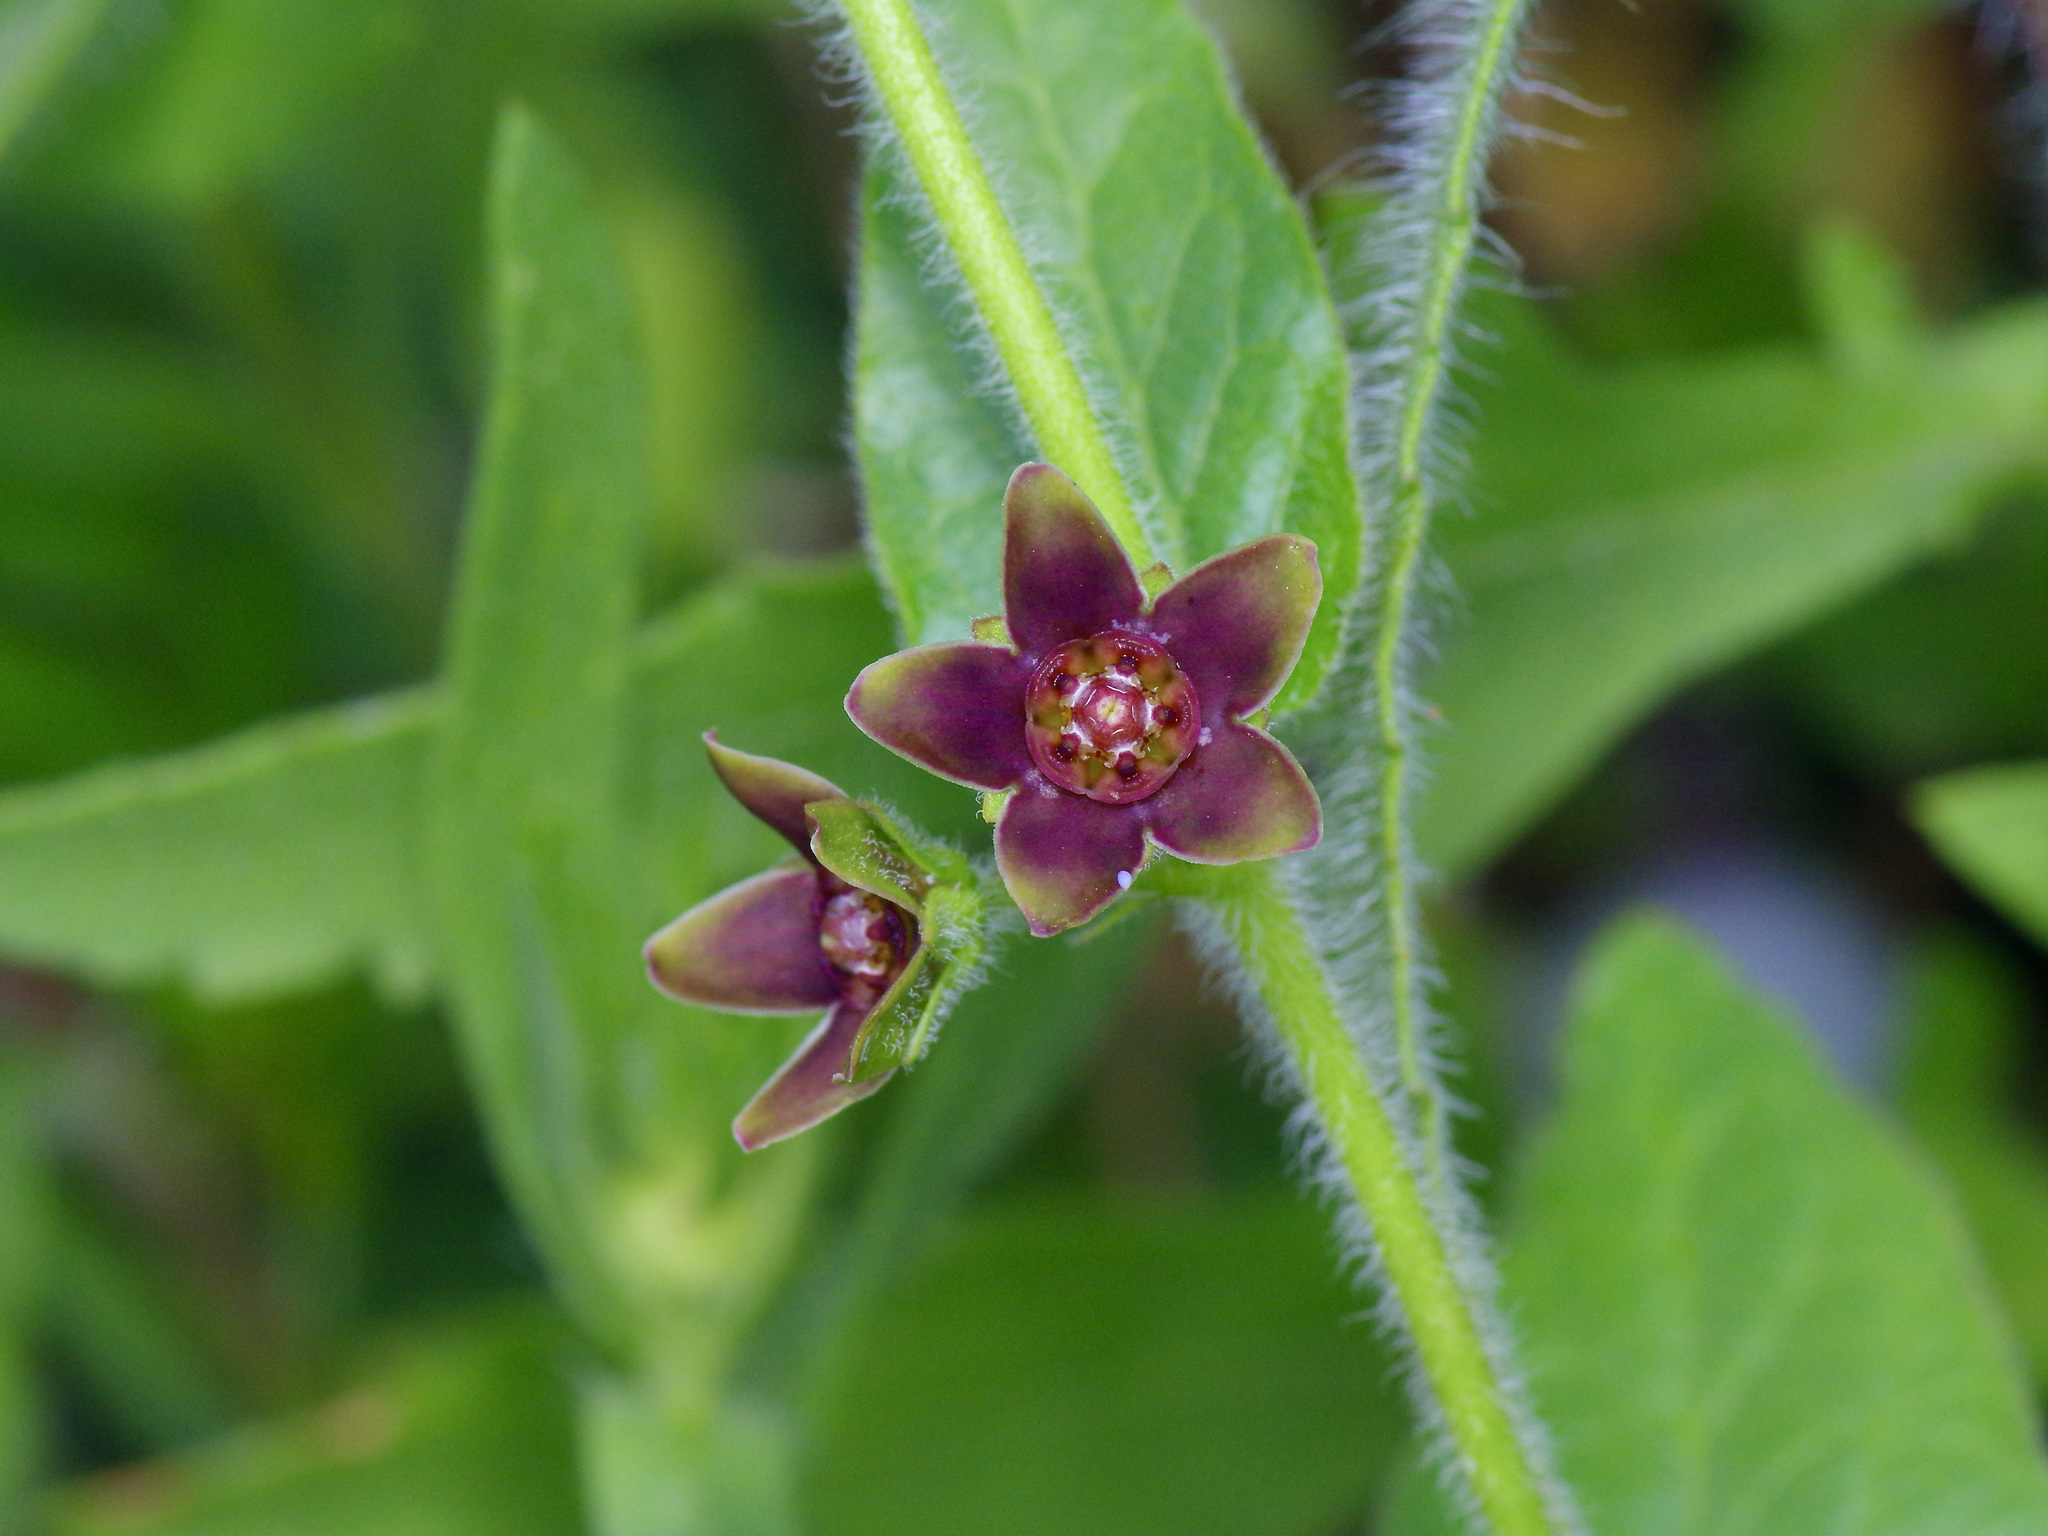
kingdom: Plantae
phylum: Tracheophyta
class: Magnoliopsida
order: Gentianales
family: Apocynaceae
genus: Matelea
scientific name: Matelea cynanchoides
